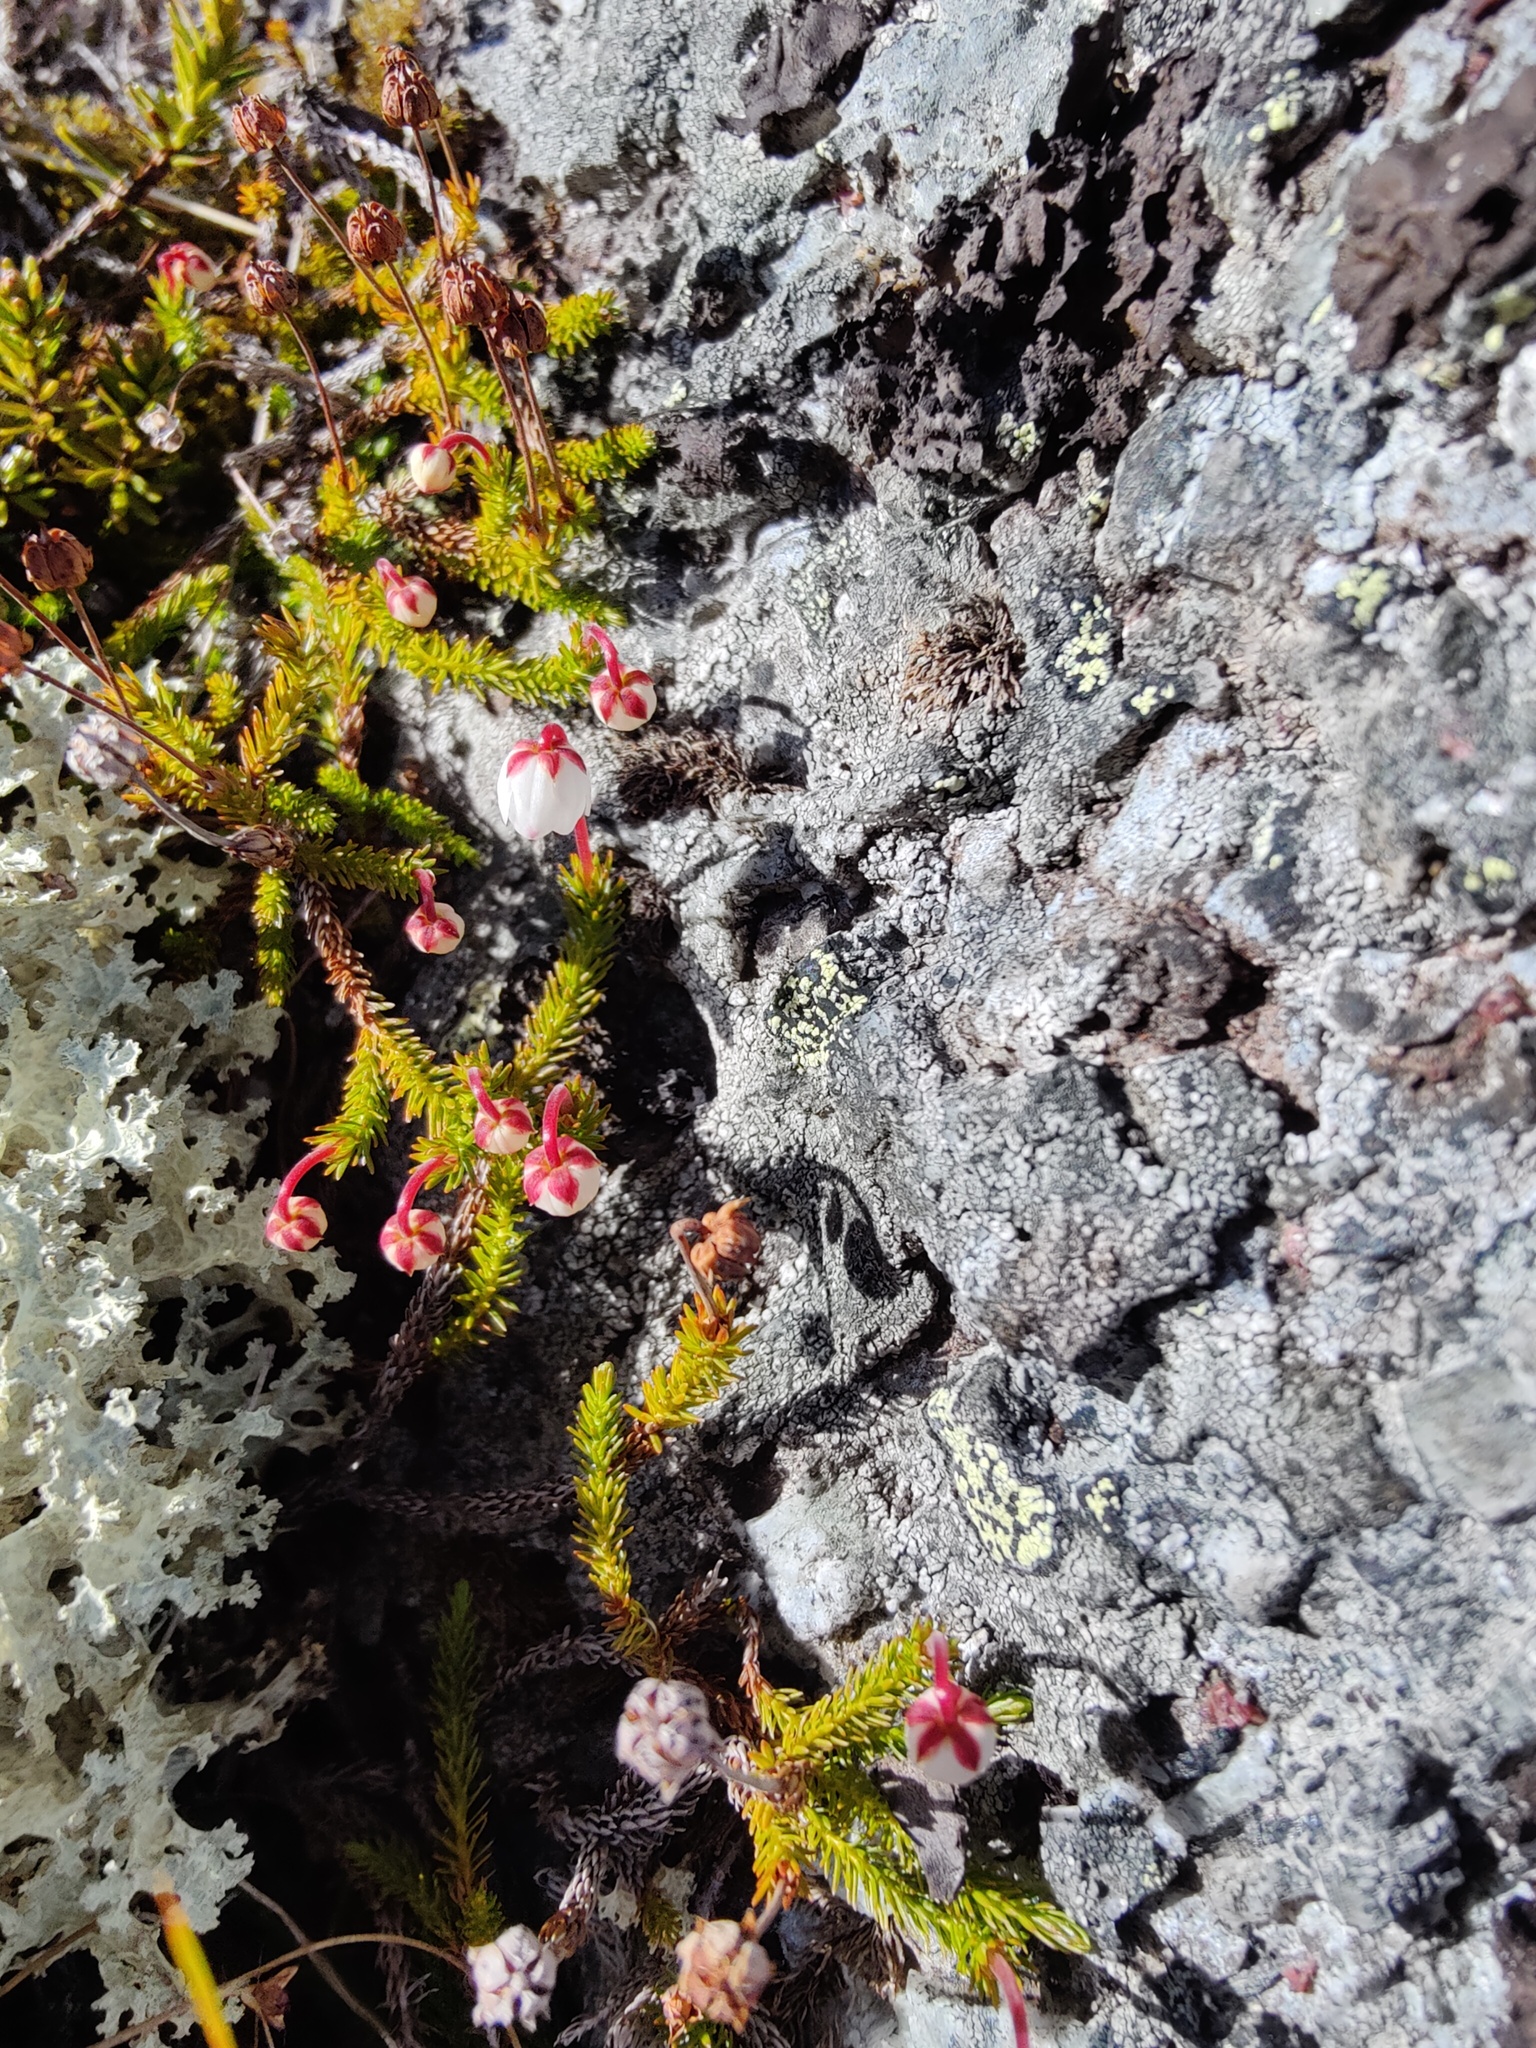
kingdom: Plantae
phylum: Tracheophyta
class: Magnoliopsida
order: Ericales
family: Ericaceae
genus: Harrimanella
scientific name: Harrimanella hypnoides
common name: Moss bell heather
